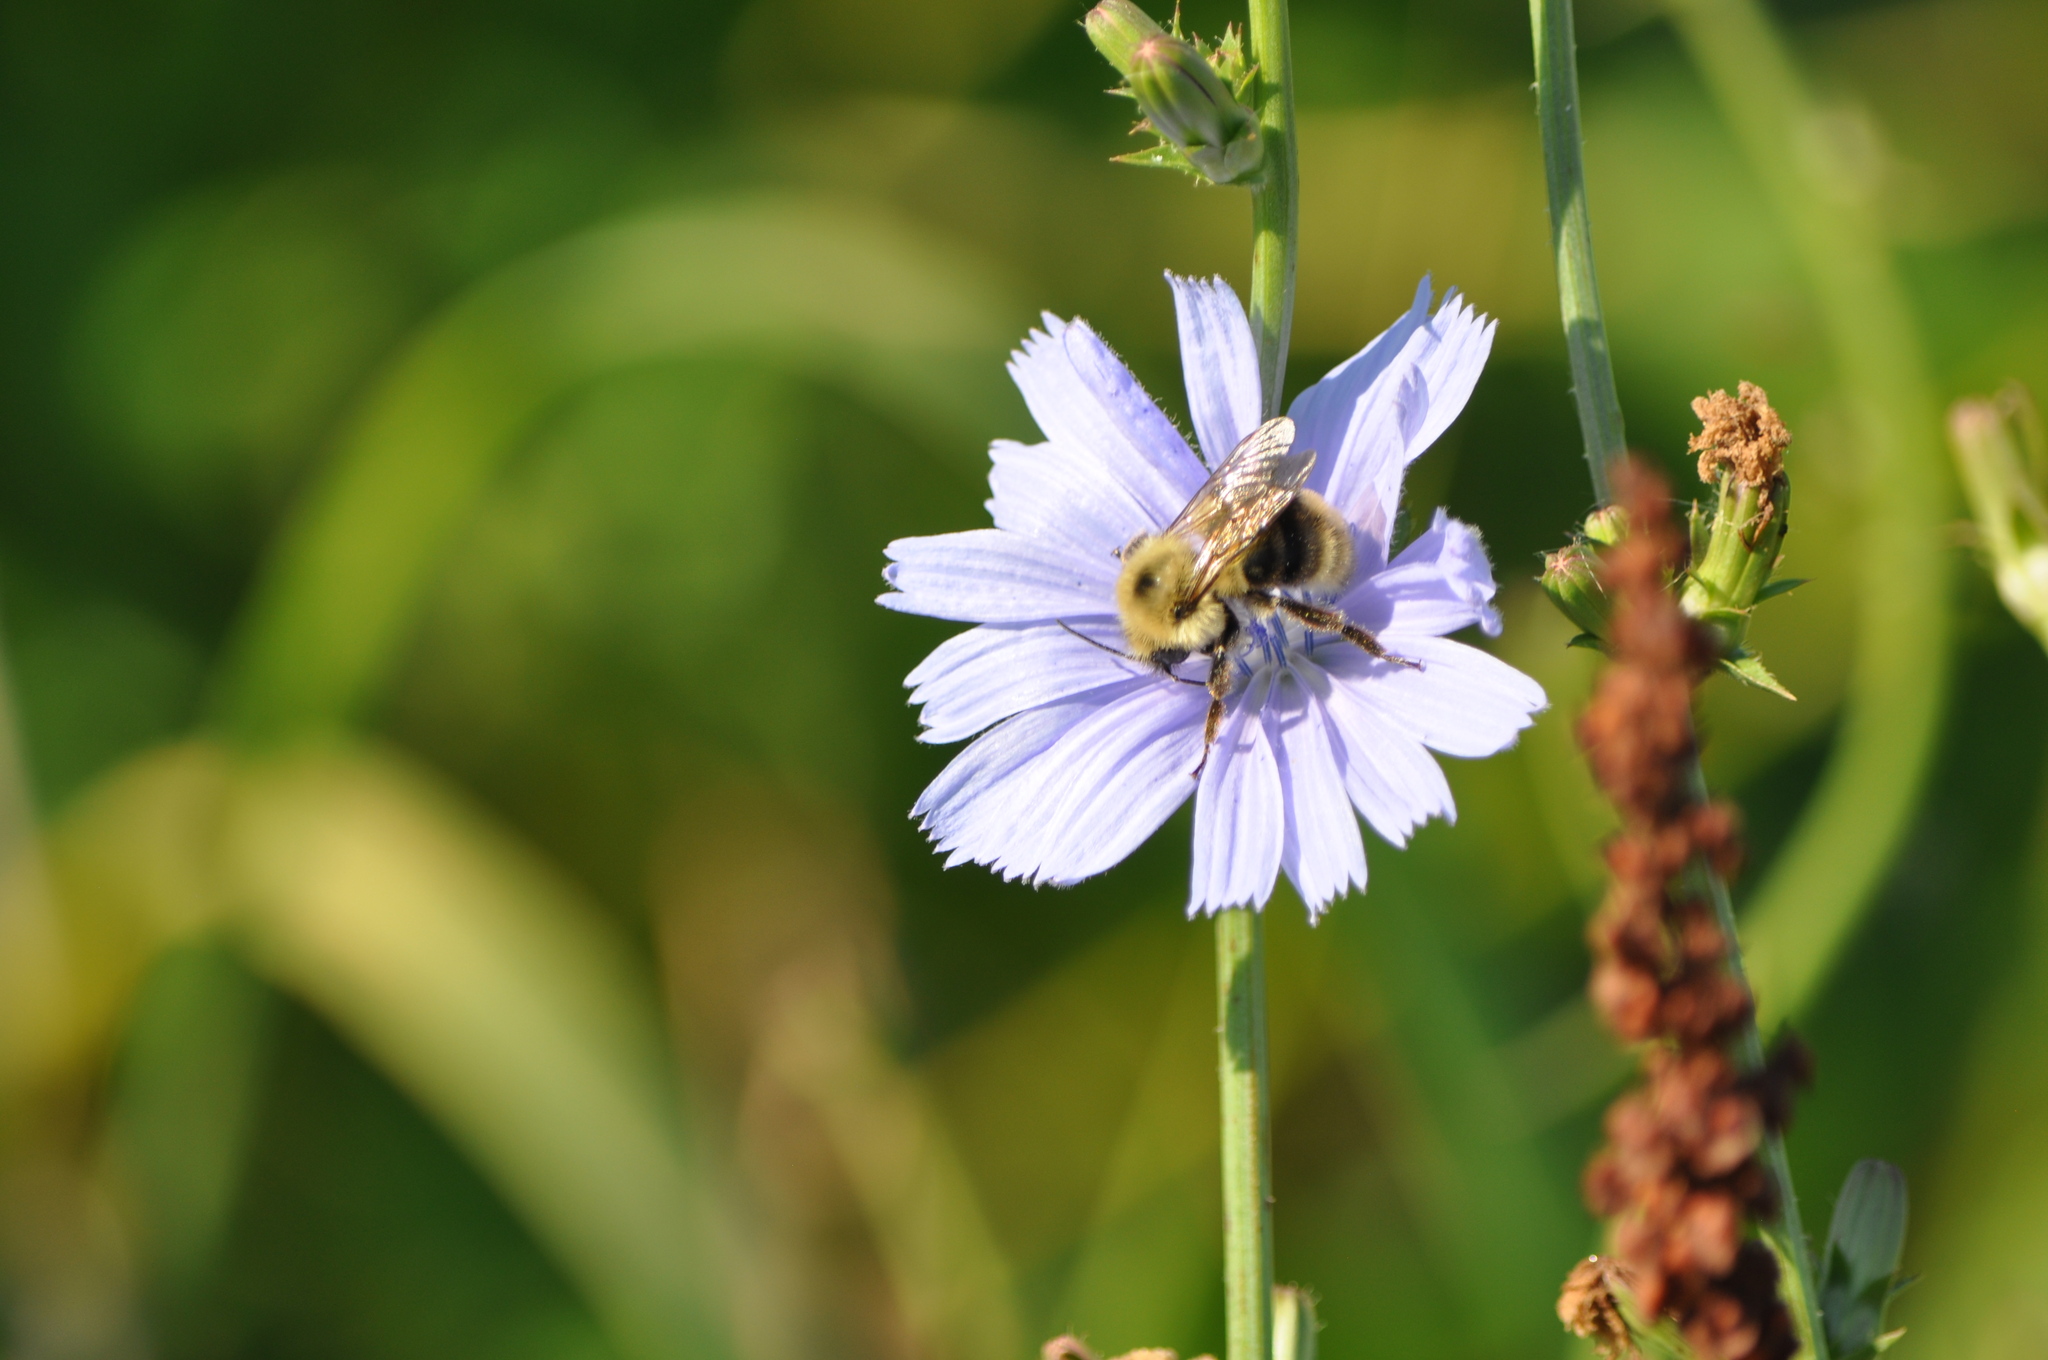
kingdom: Animalia
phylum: Arthropoda
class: Insecta
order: Hymenoptera
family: Apidae
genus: Bombus
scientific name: Bombus bimaculatus
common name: Two-spotted bumble bee
